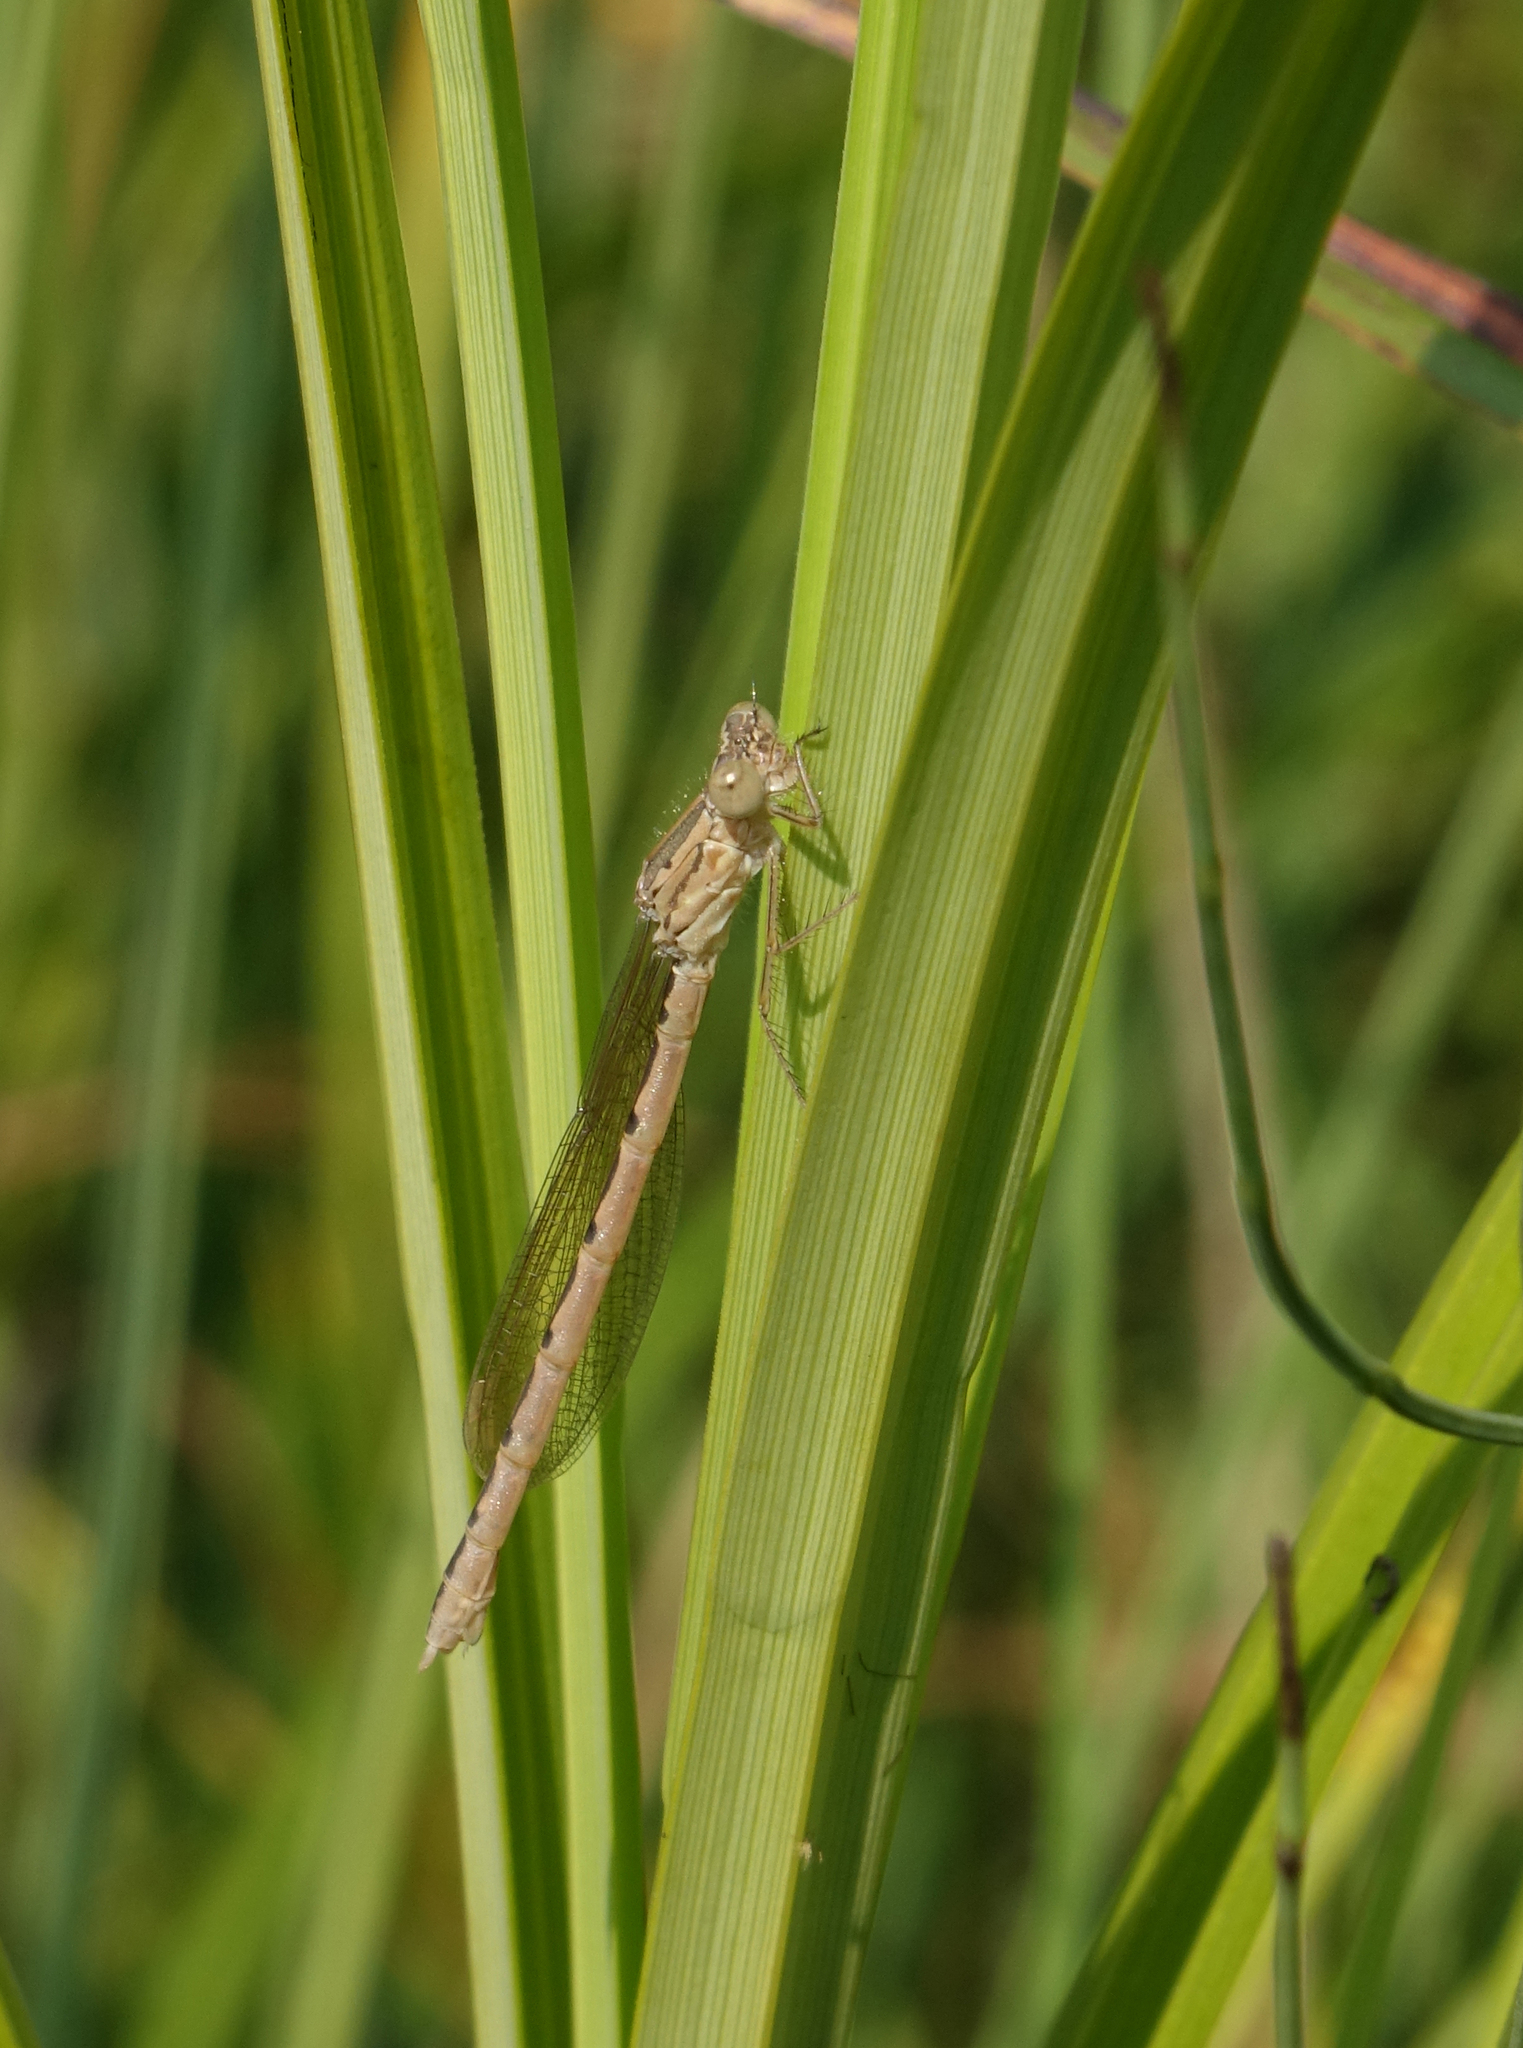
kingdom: Animalia
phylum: Arthropoda
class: Insecta
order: Odonata
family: Lestidae
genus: Sympecma
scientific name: Sympecma paedisca
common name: Siberian winter damsel
